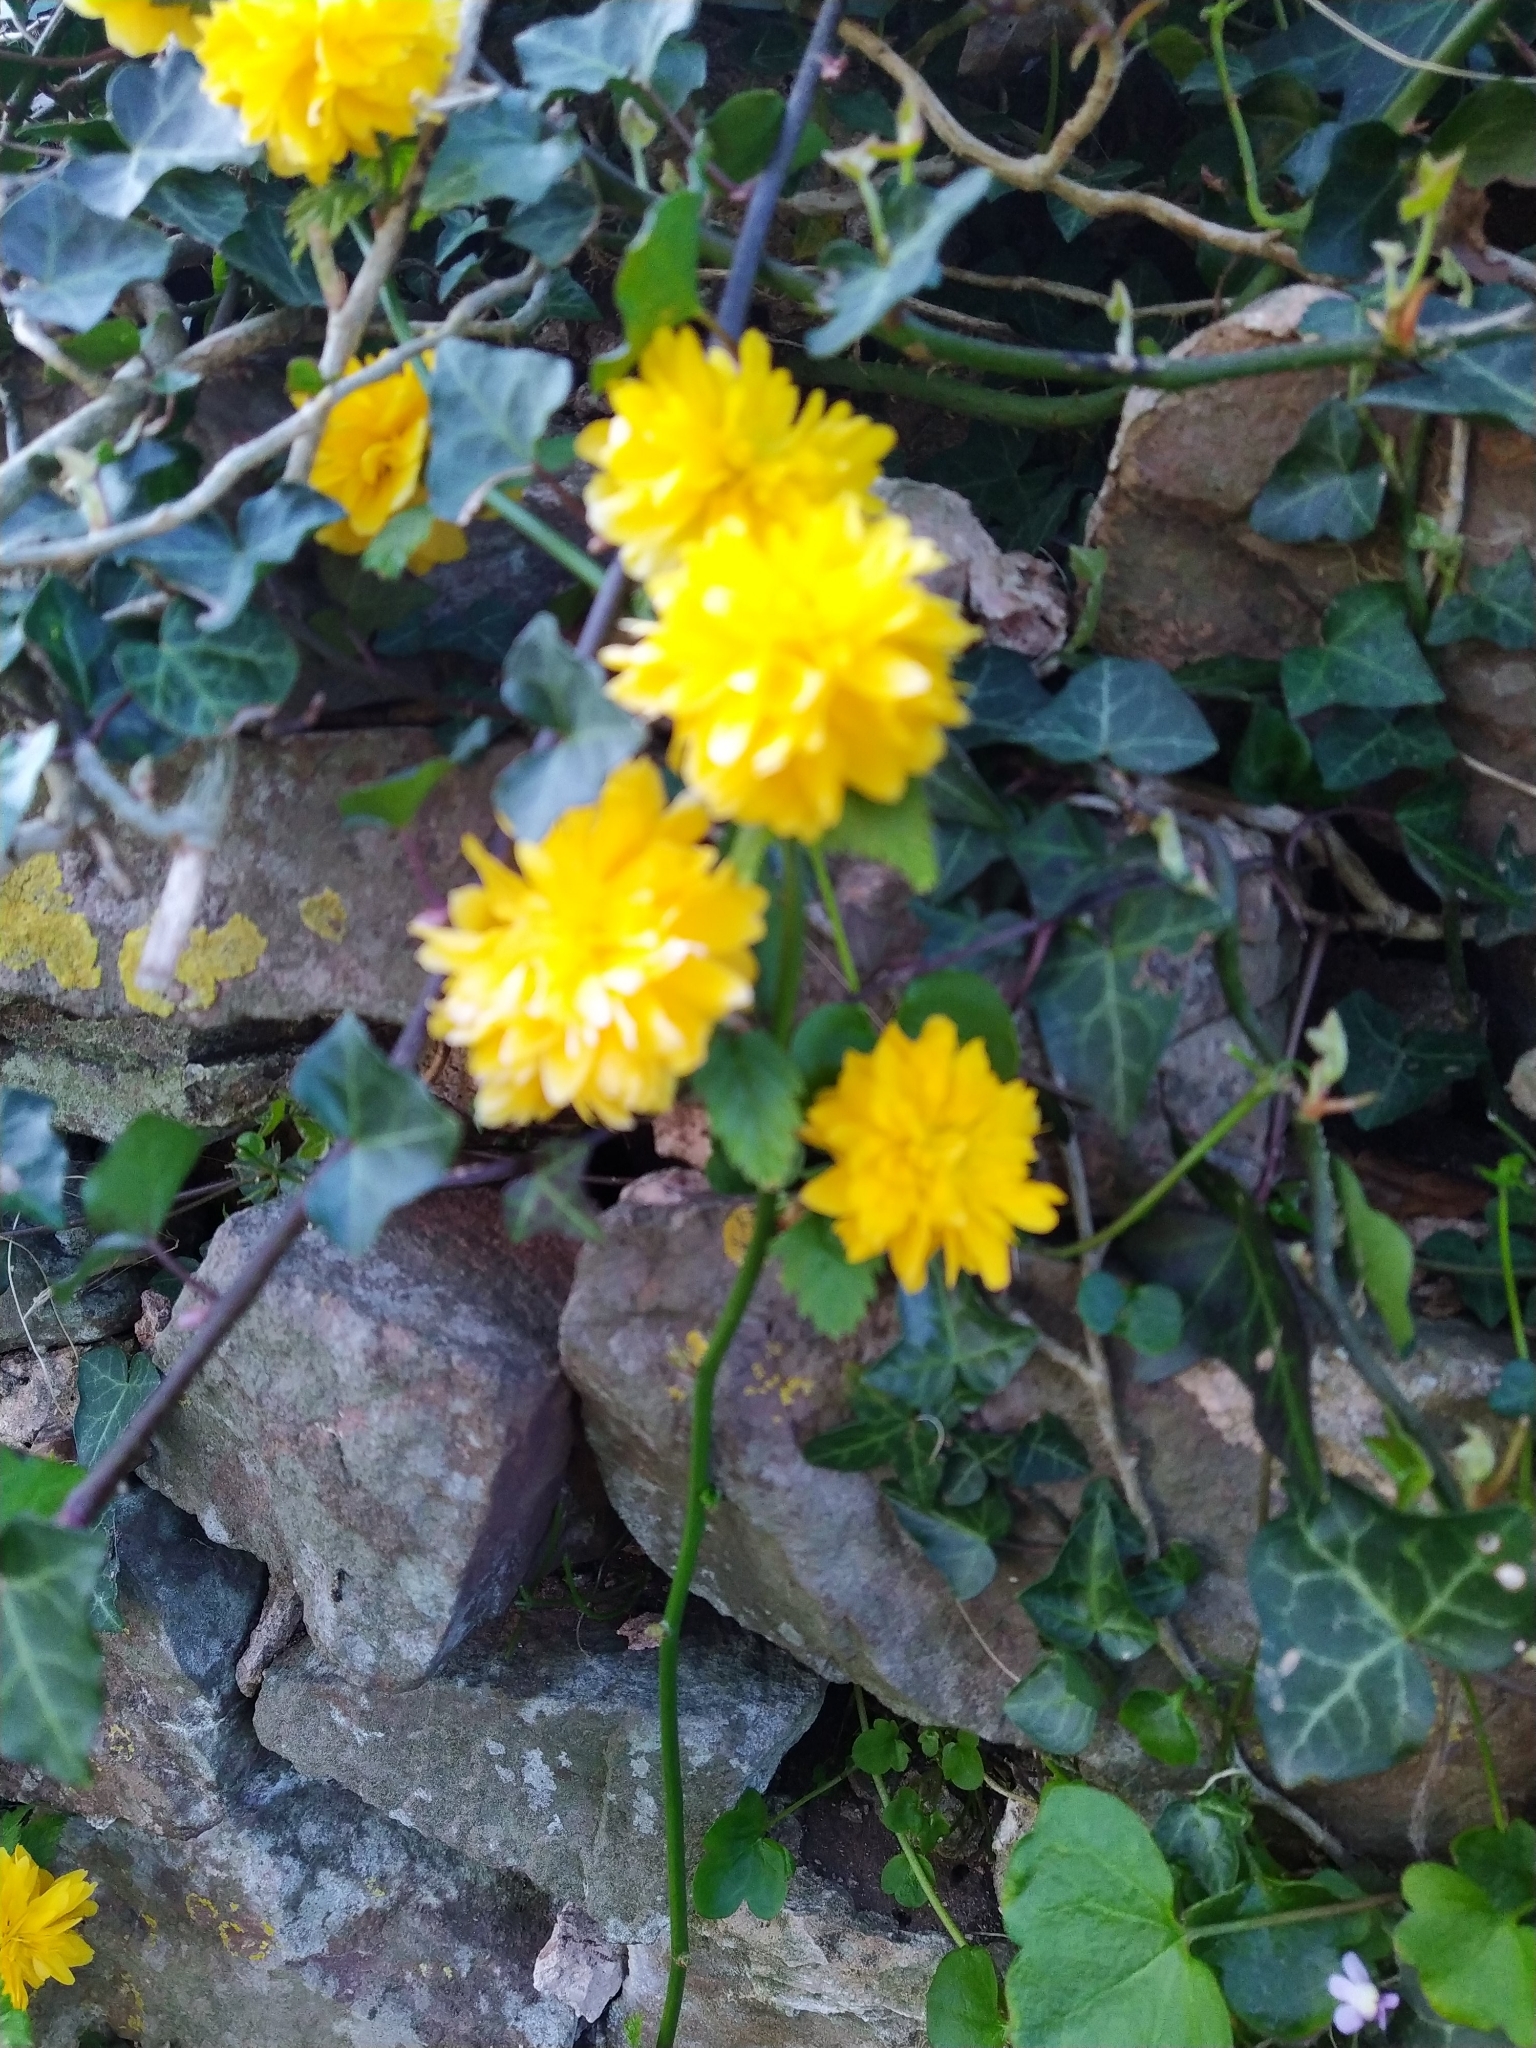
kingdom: Plantae
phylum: Tracheophyta
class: Magnoliopsida
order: Rosales
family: Rosaceae
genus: Kerria
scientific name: Kerria japonica
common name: Japanese kerria
